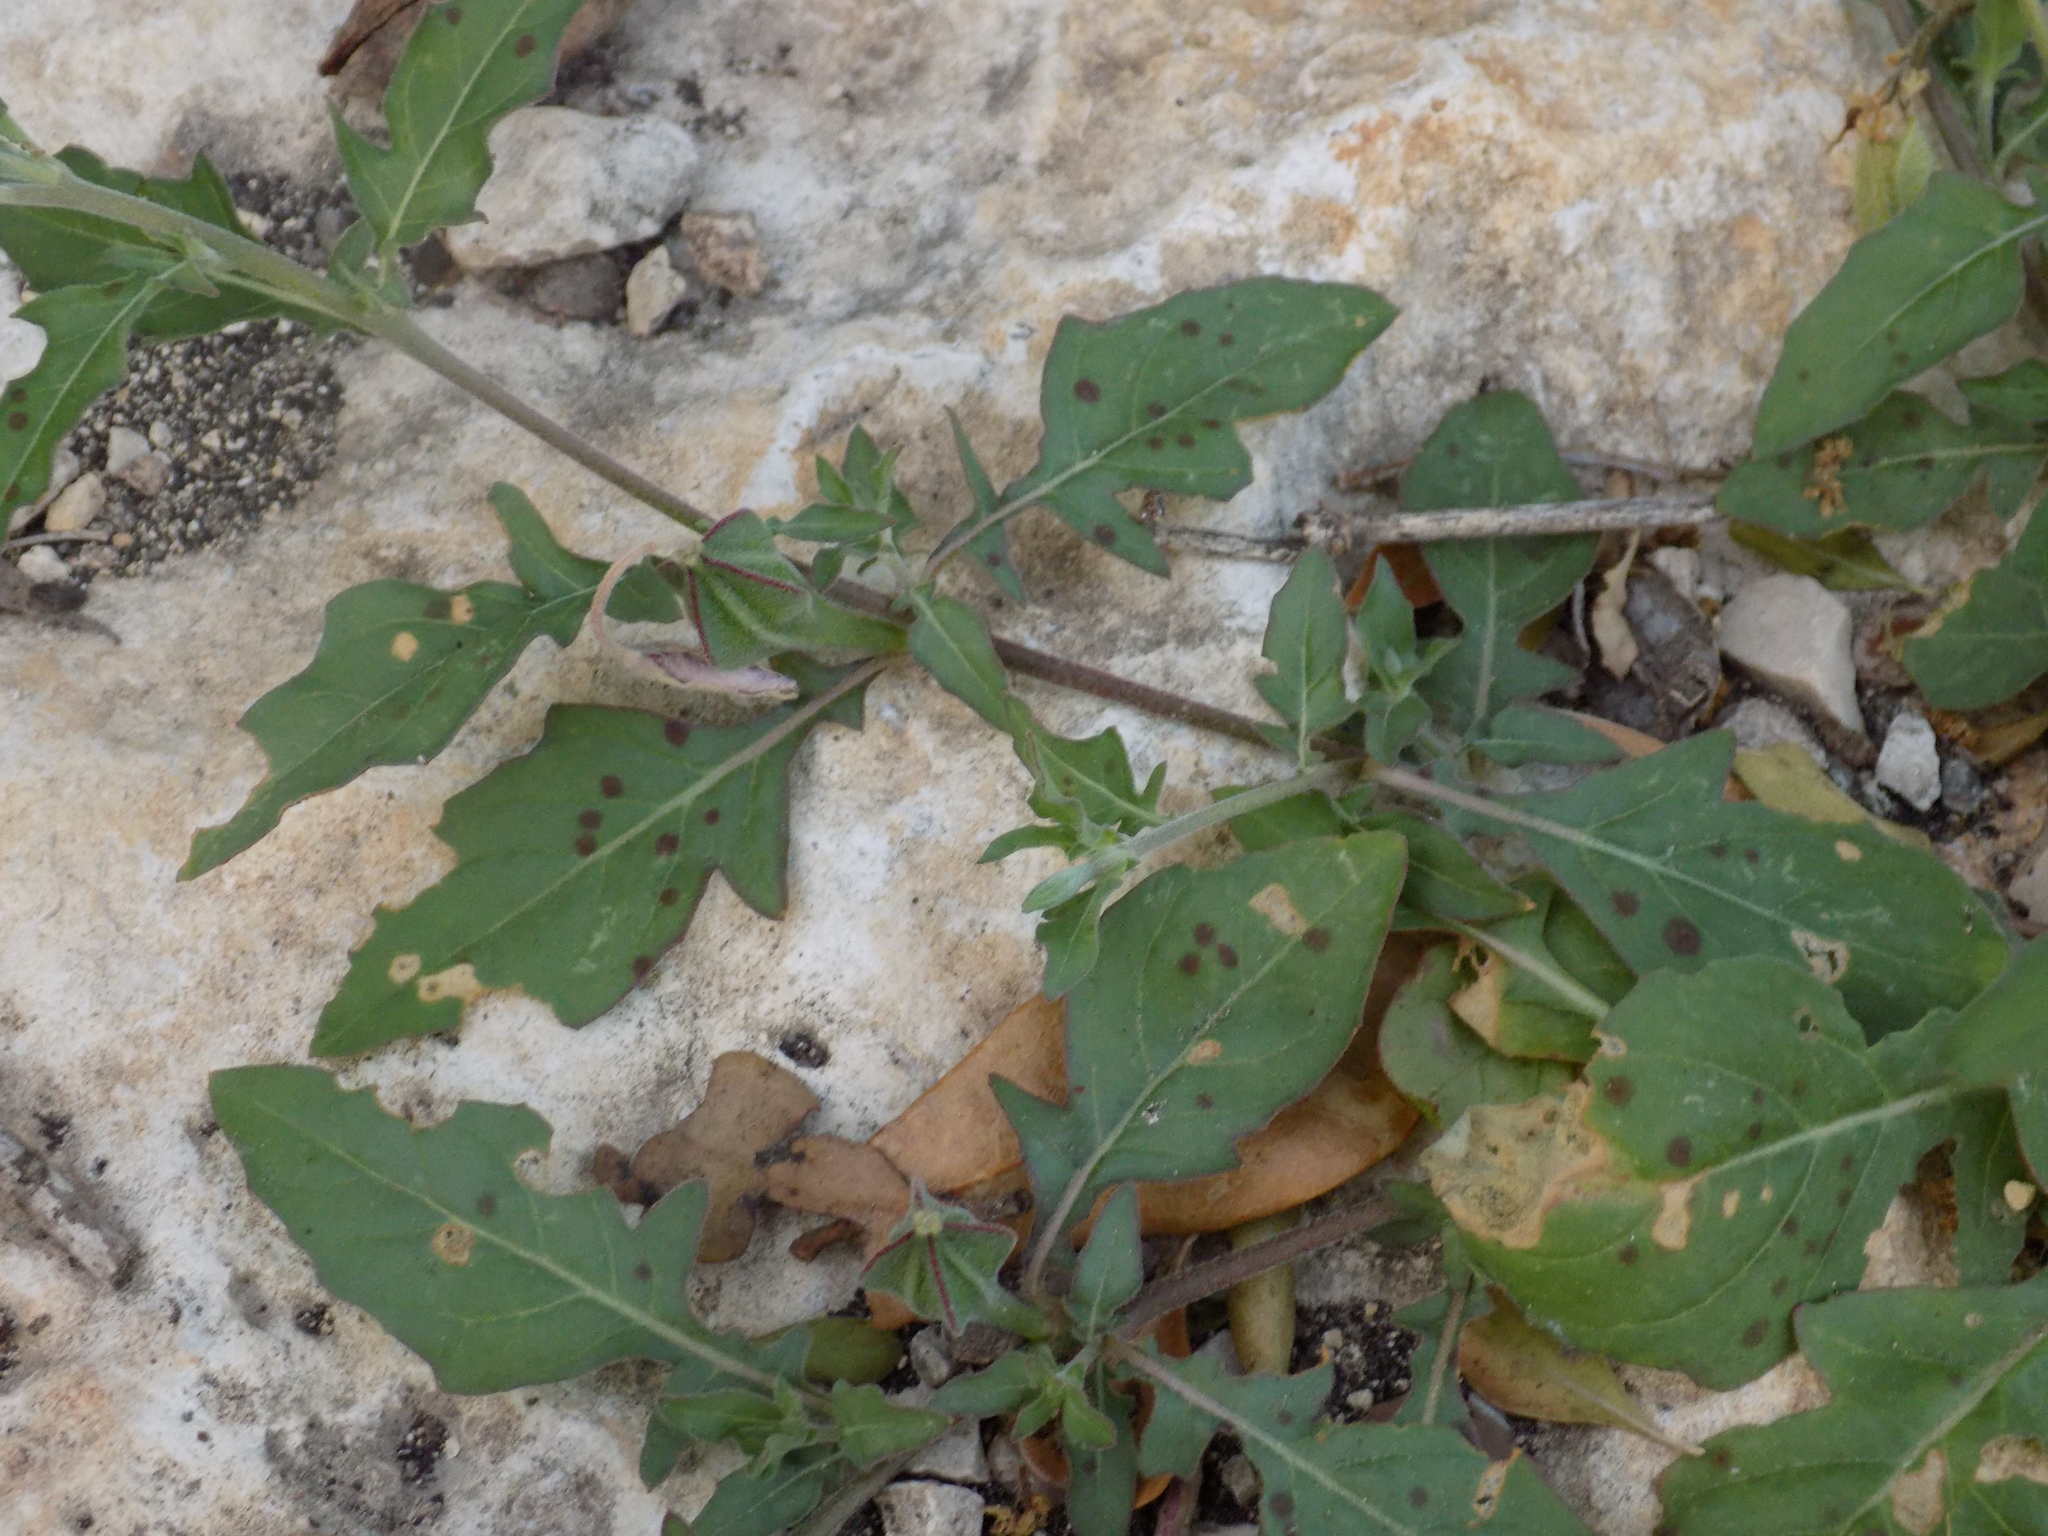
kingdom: Plantae
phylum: Tracheophyta
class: Magnoliopsida
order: Myrtales
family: Onagraceae
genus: Oenothera
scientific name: Oenothera speciosa
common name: White evening-primrose
